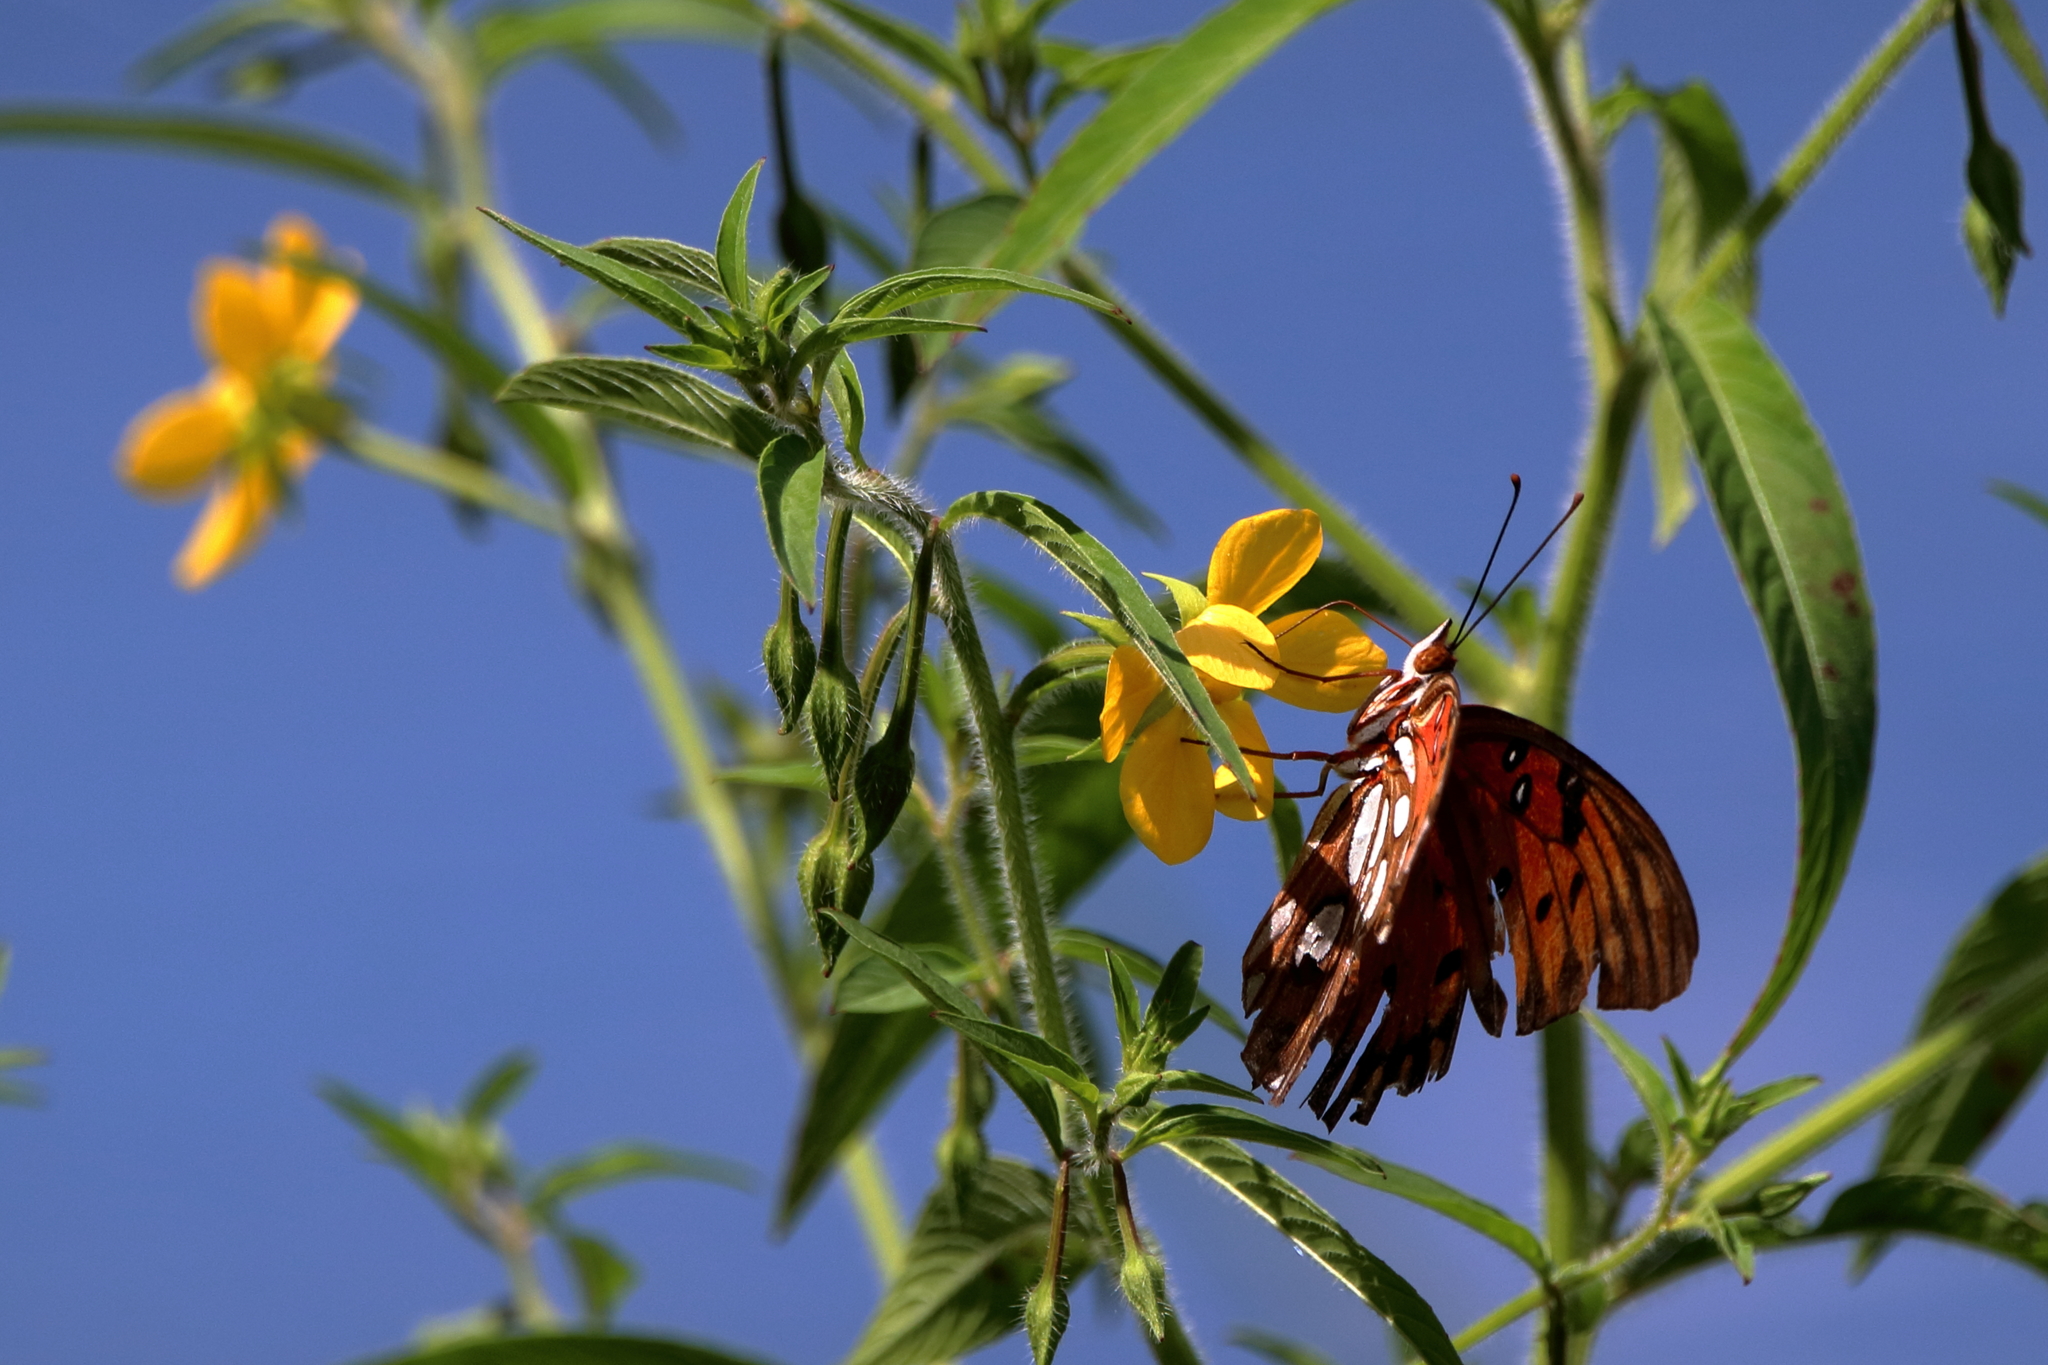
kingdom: Animalia
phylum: Arthropoda
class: Insecta
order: Lepidoptera
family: Nymphalidae
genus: Dione
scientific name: Dione vanillae
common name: Gulf fritillary
